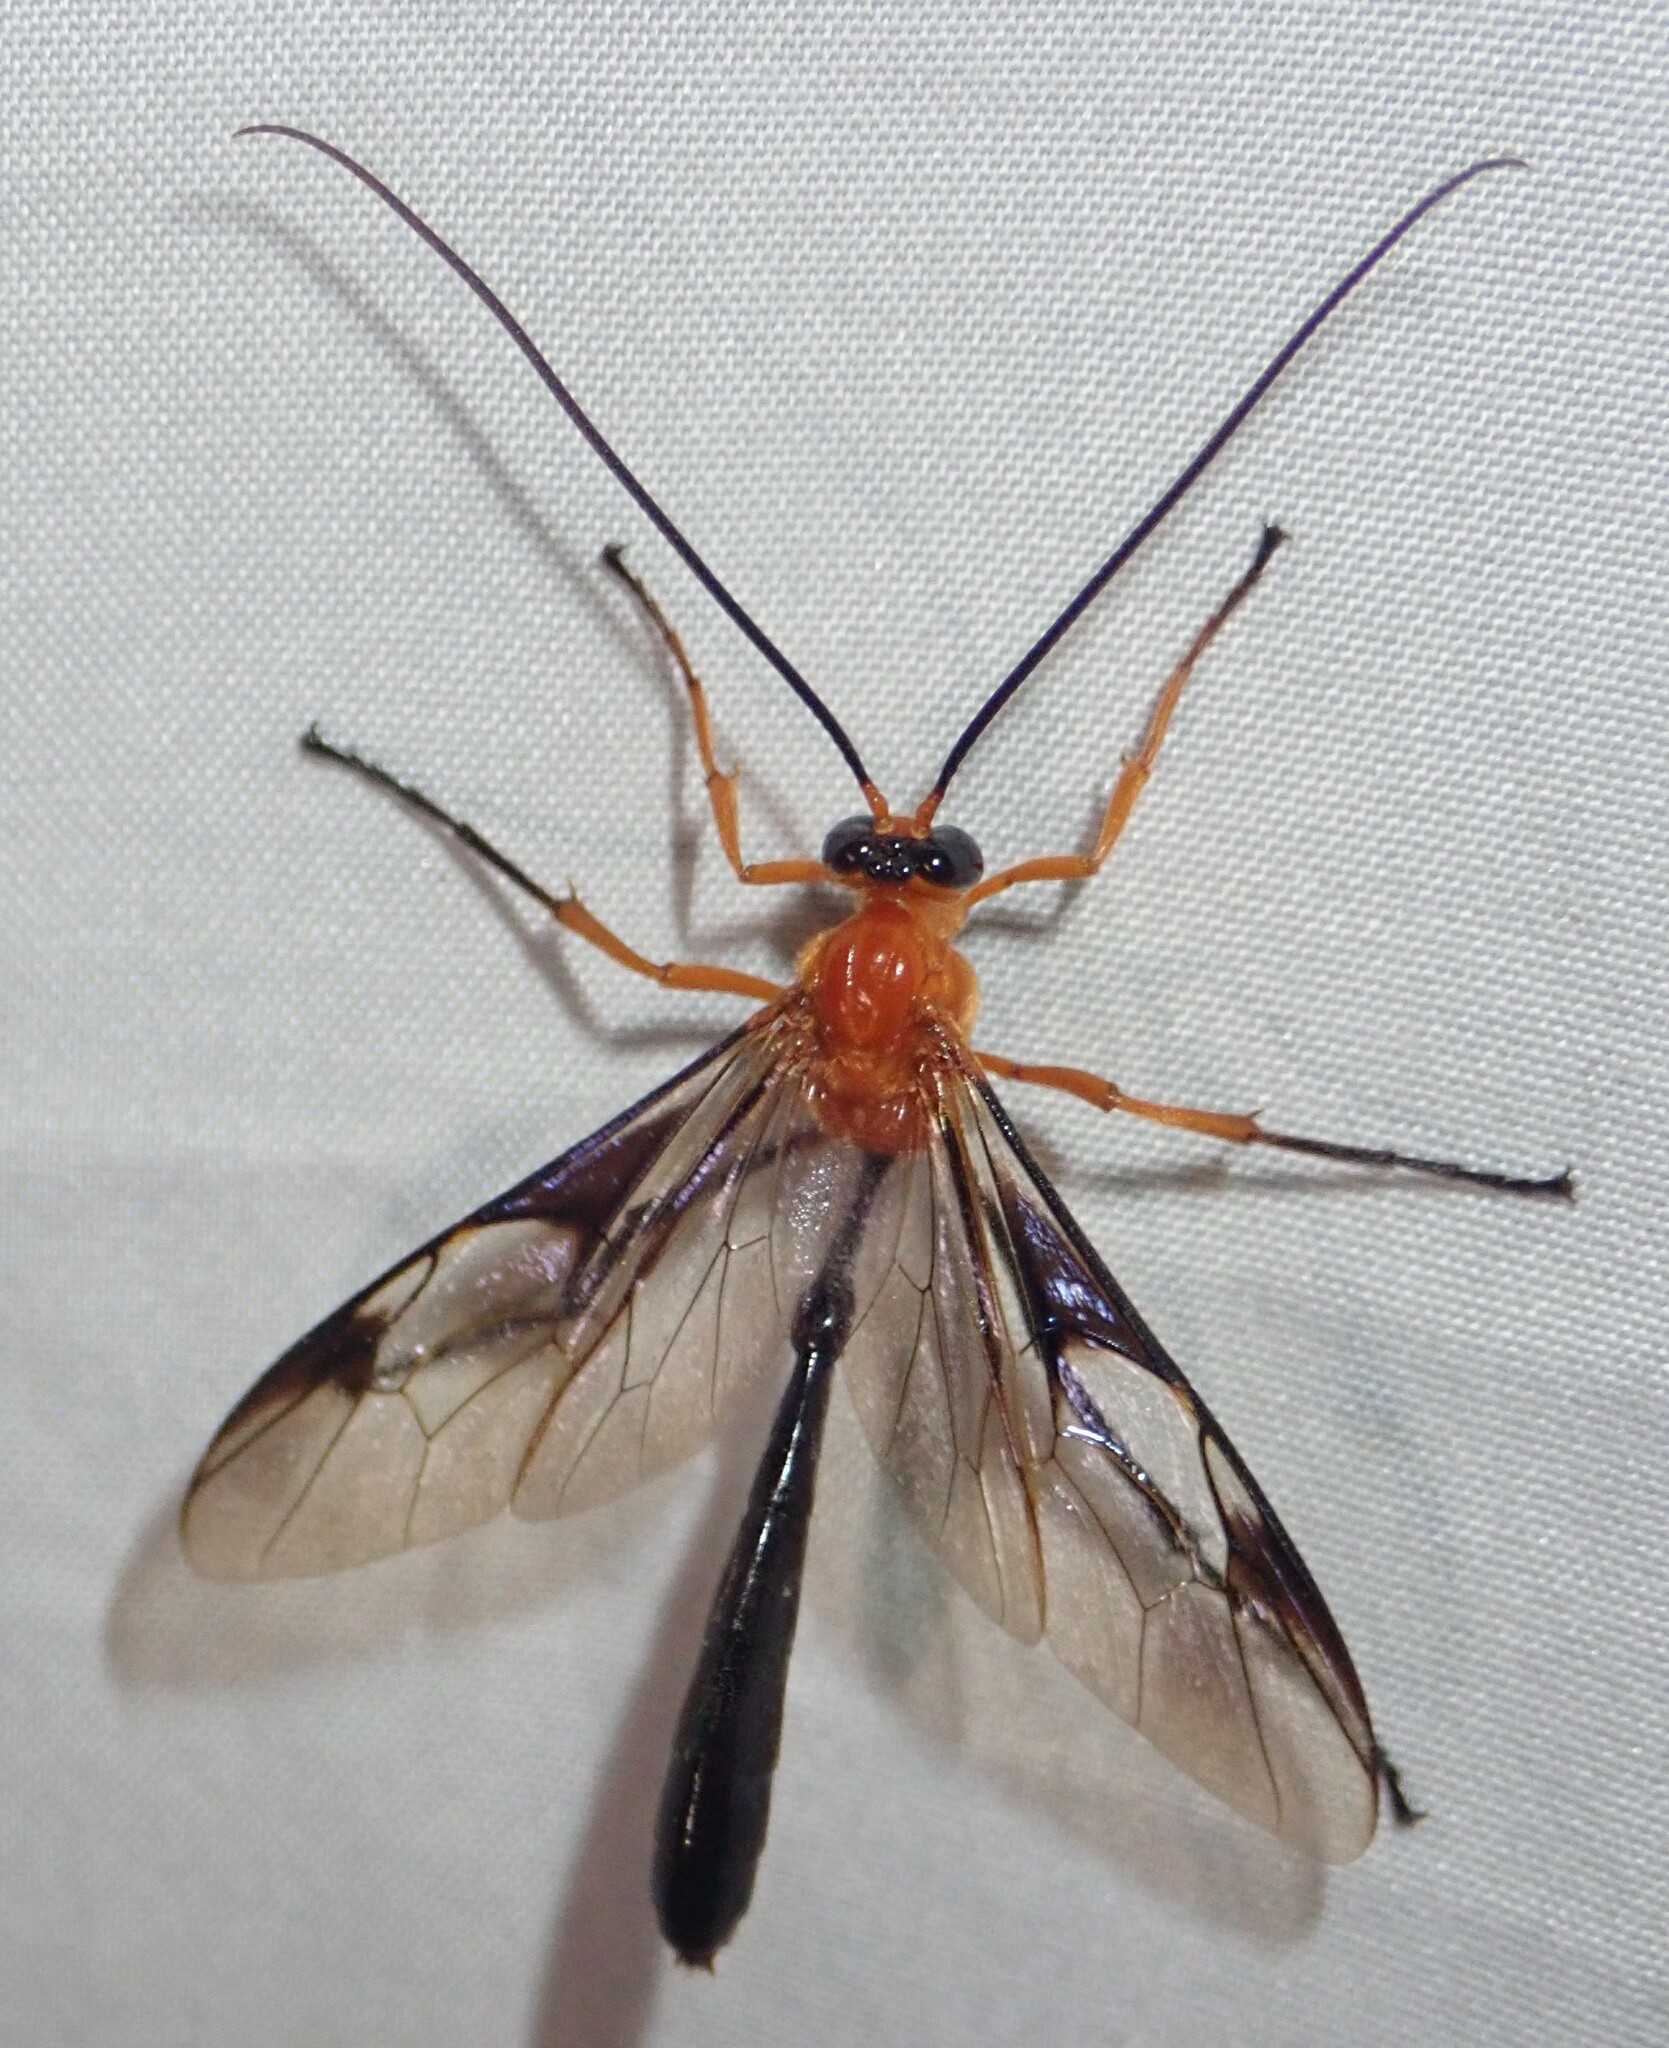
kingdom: Animalia
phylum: Arthropoda
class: Insecta
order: Hymenoptera
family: Ichneumonidae
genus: Thyreodon
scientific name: Thyreodon atriventris
